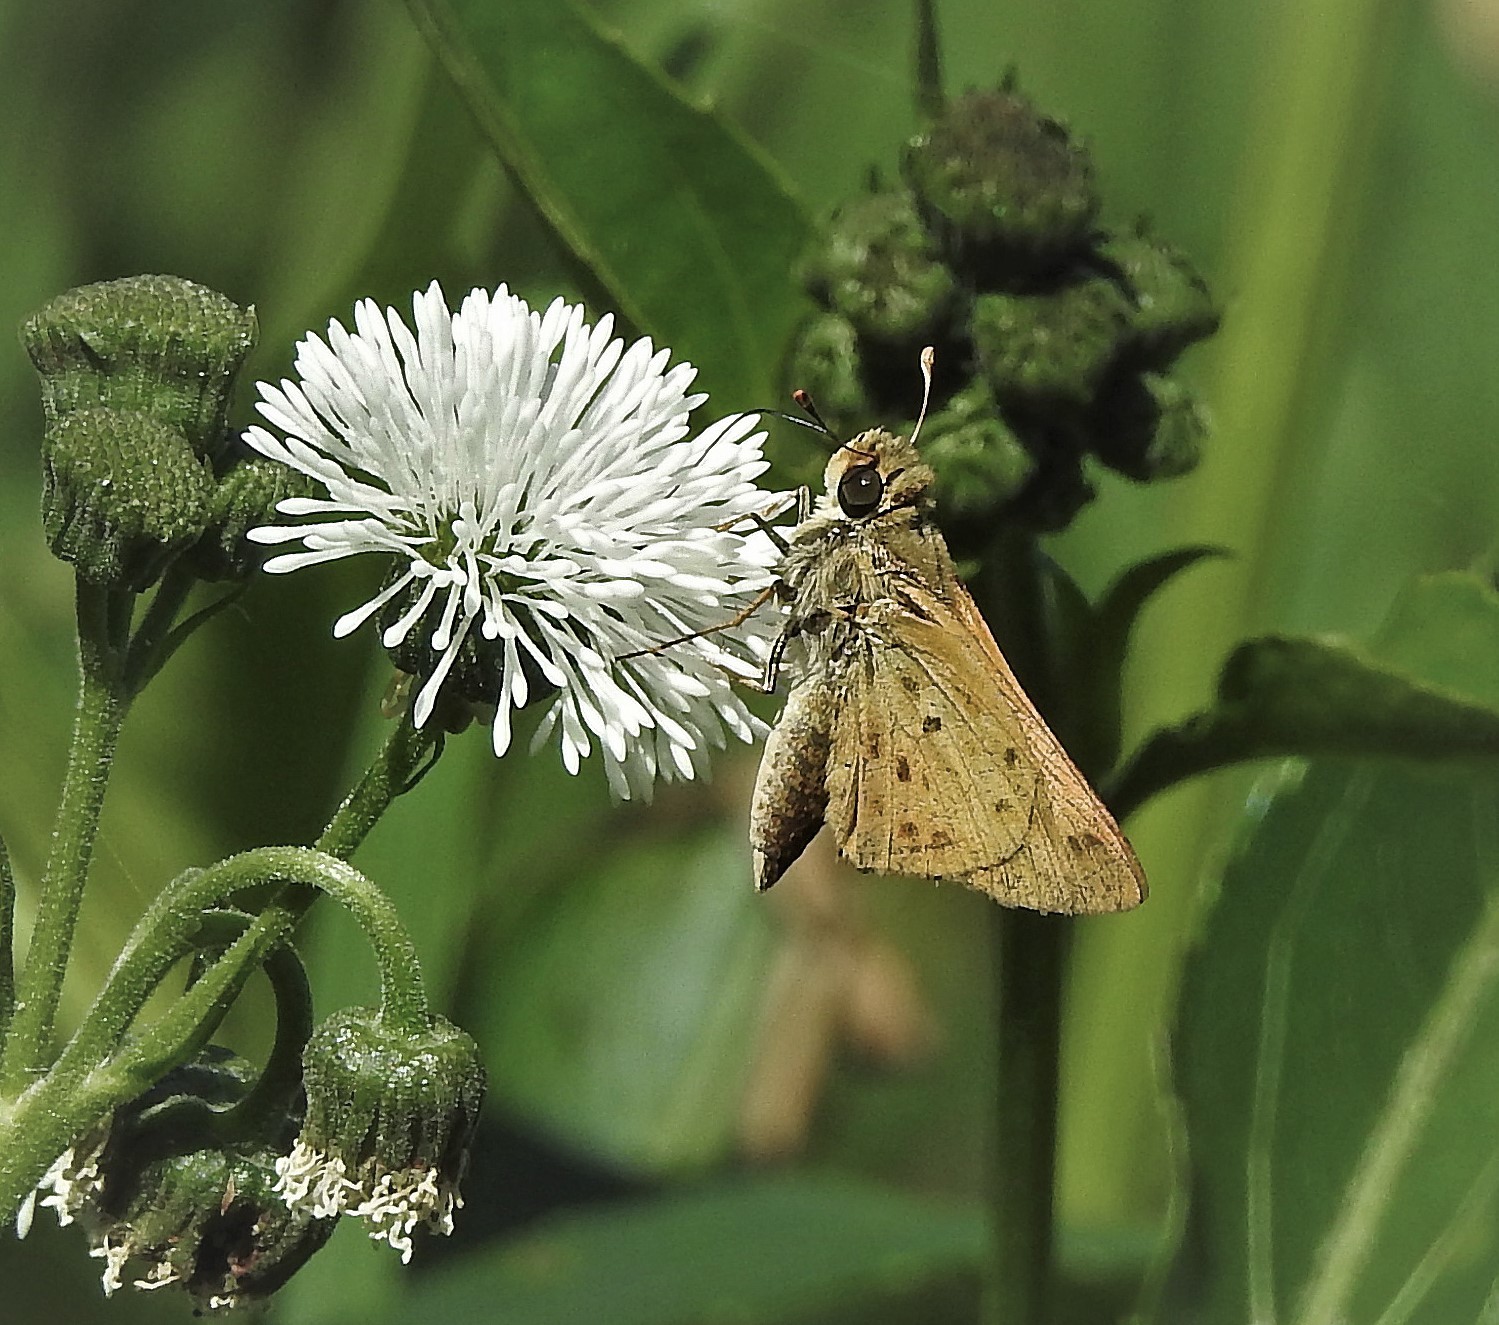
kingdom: Animalia
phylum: Arthropoda
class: Insecta
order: Lepidoptera
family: Hesperiidae
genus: Hylephila
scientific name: Hylephila phyleus
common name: Fiery skipper
